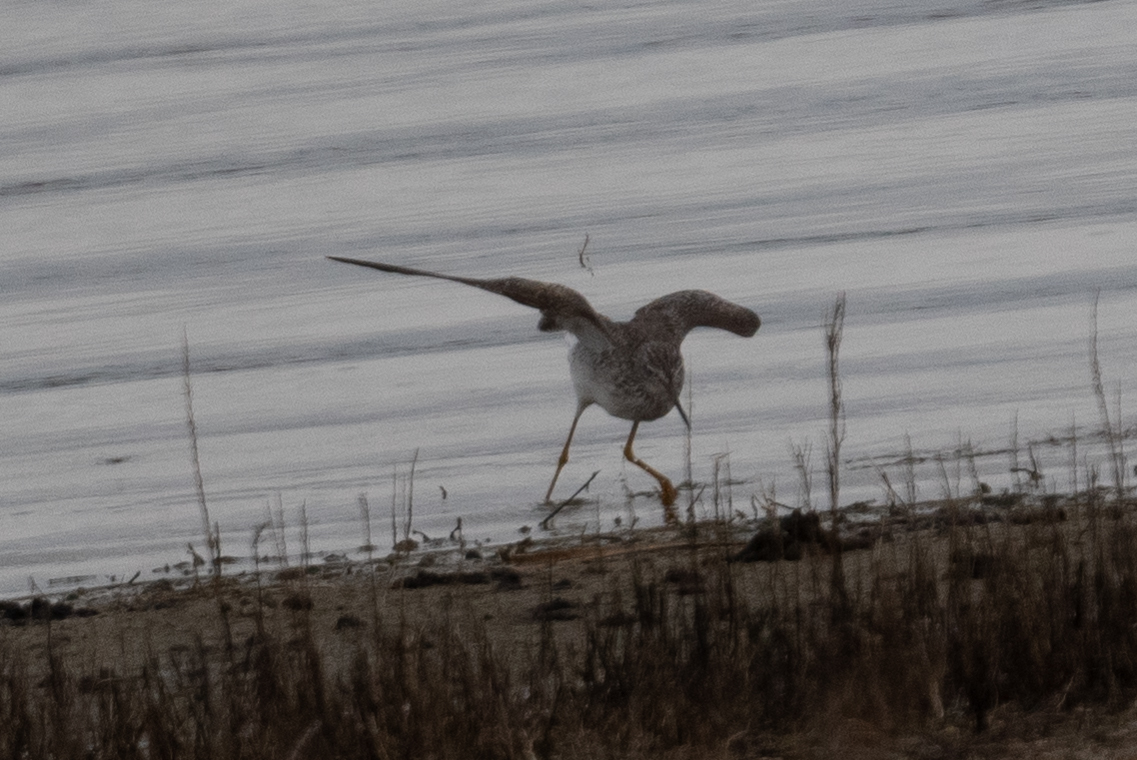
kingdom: Animalia
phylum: Chordata
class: Aves
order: Charadriiformes
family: Scolopacidae
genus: Tringa
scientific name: Tringa melanoleuca
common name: Greater yellowlegs
